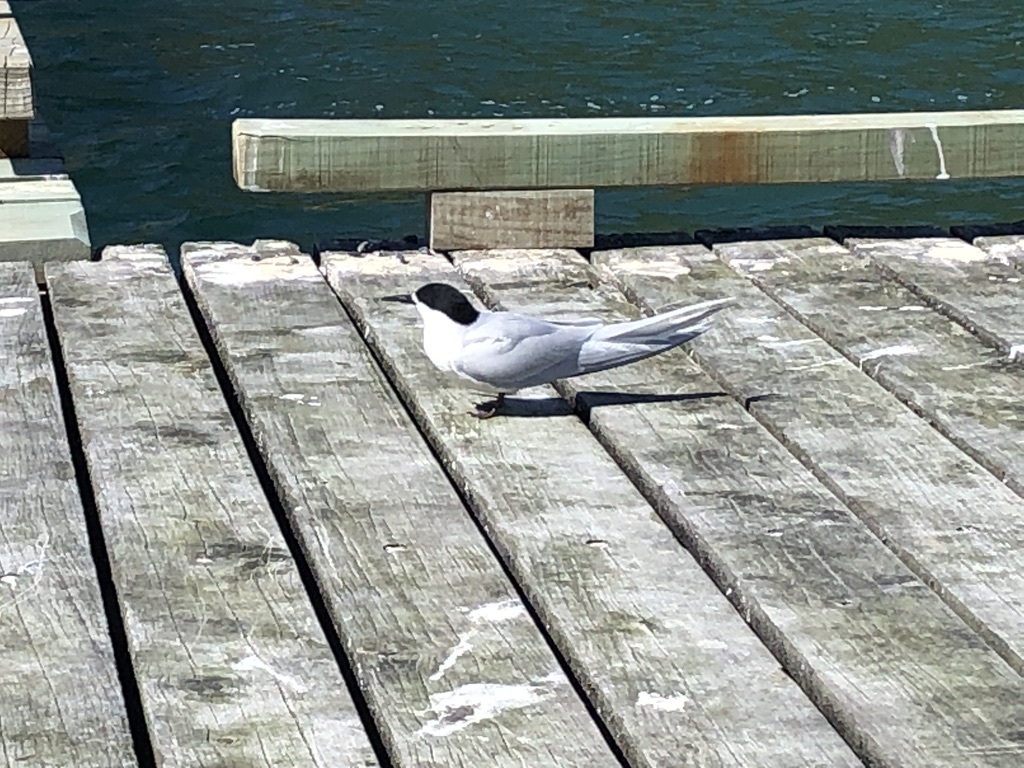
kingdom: Animalia
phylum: Chordata
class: Aves
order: Charadriiformes
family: Laridae
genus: Sterna
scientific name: Sterna striata
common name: White-fronted tern
